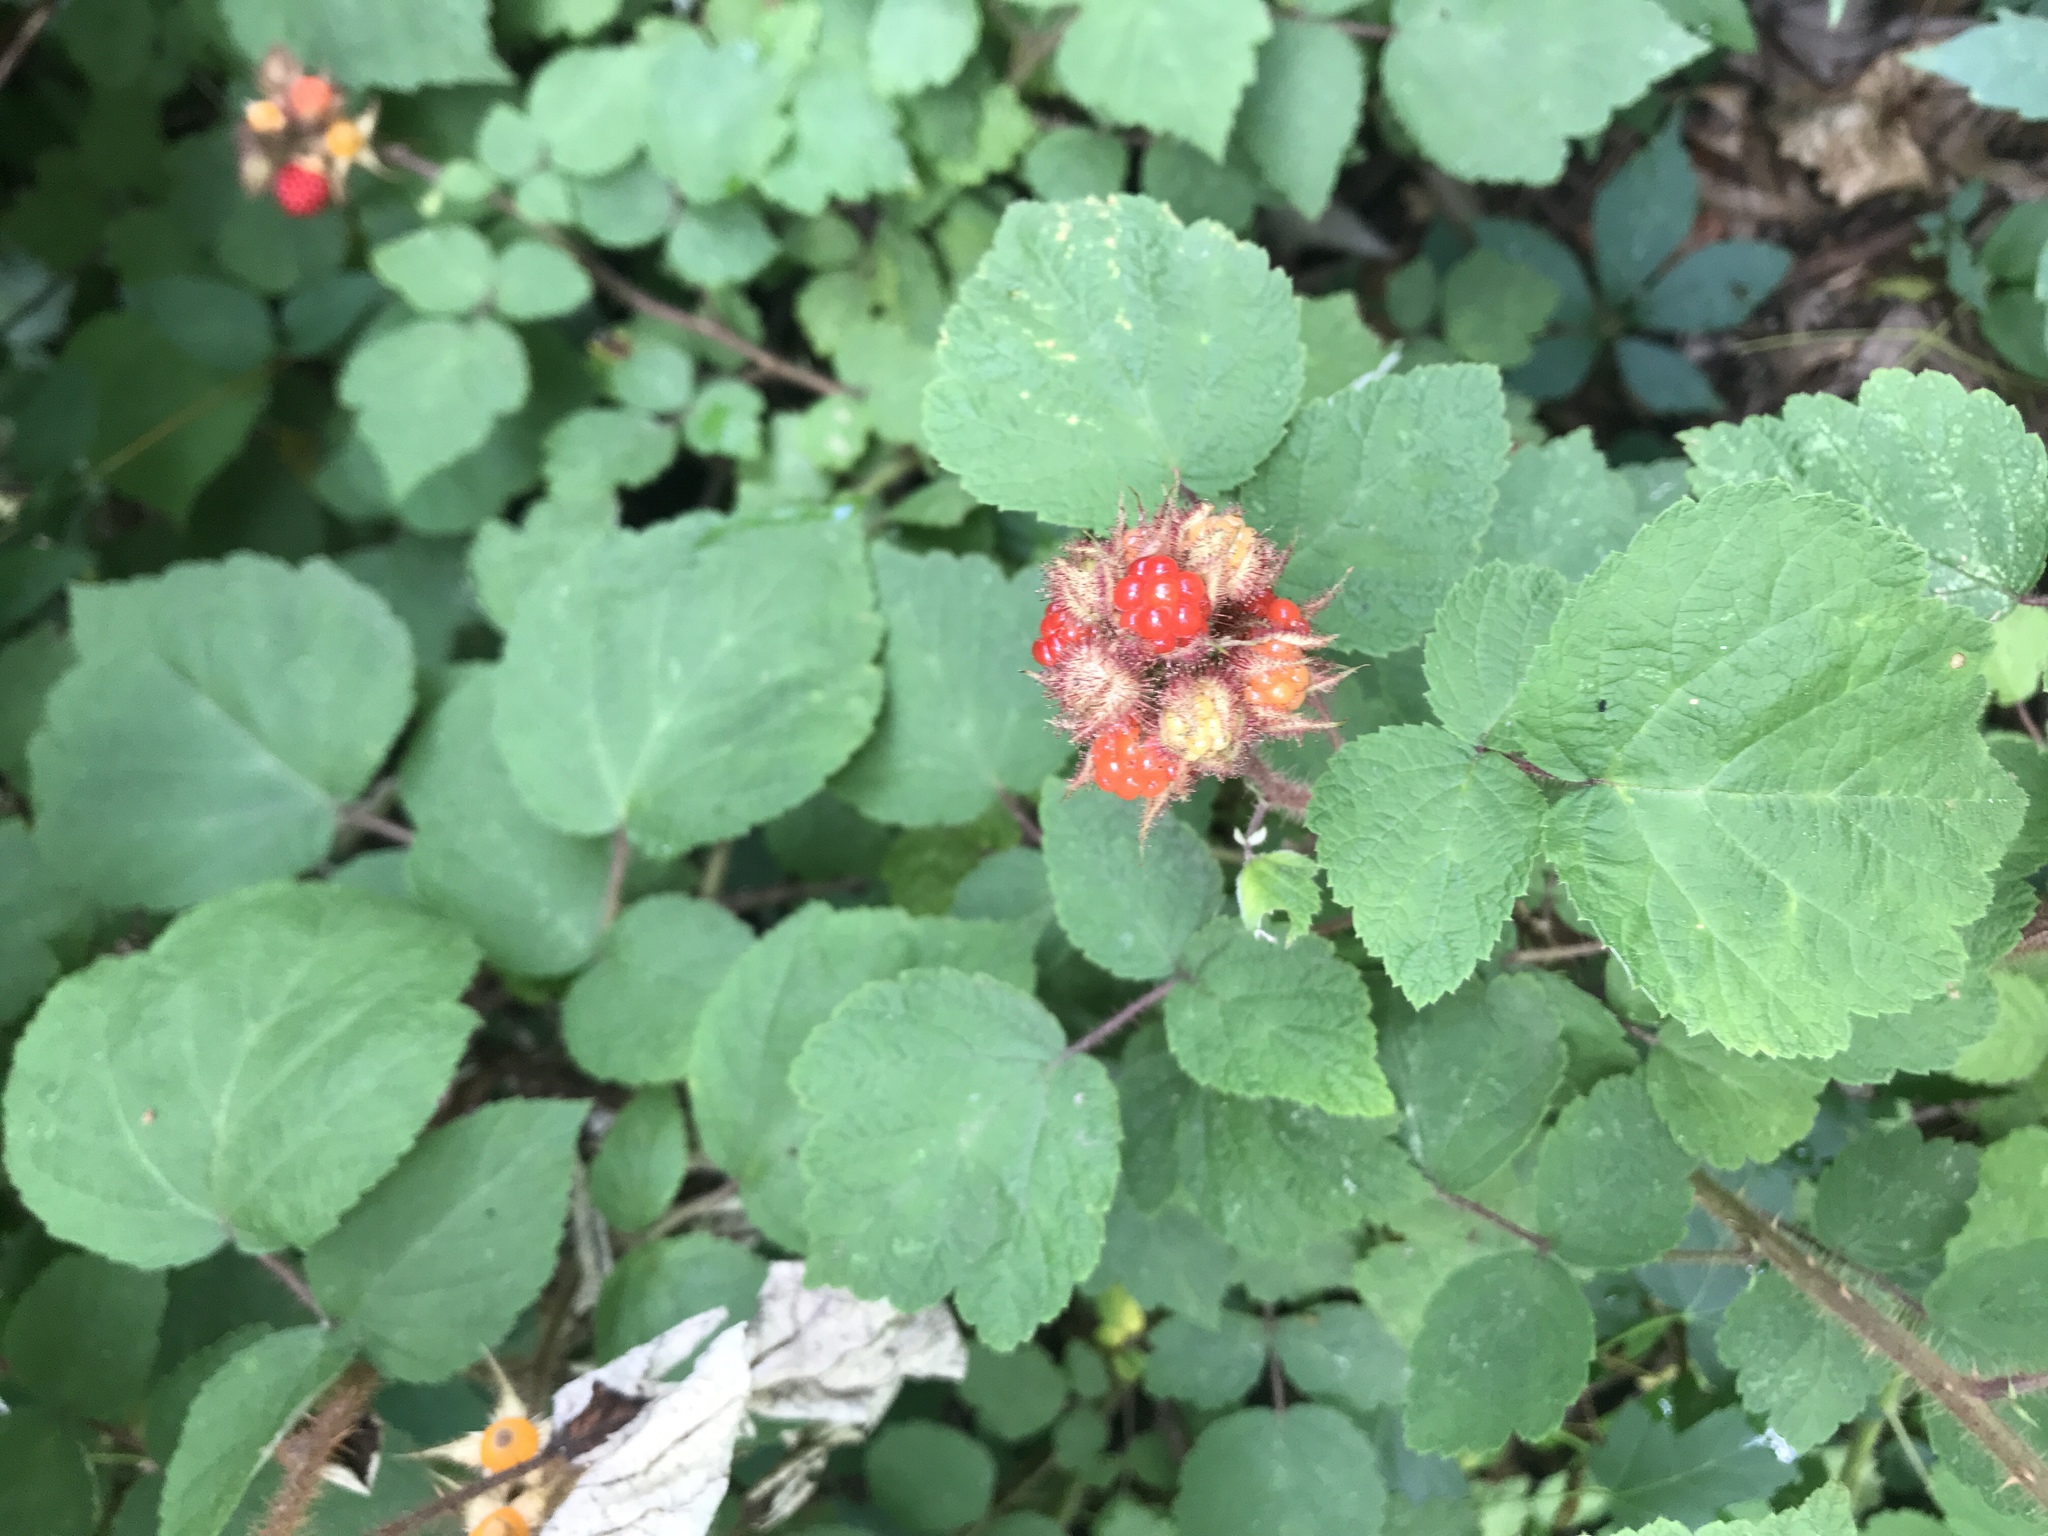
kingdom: Plantae
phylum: Tracheophyta
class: Magnoliopsida
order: Rosales
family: Rosaceae
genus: Rubus
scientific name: Rubus phoenicolasius
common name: Japanese wineberry
